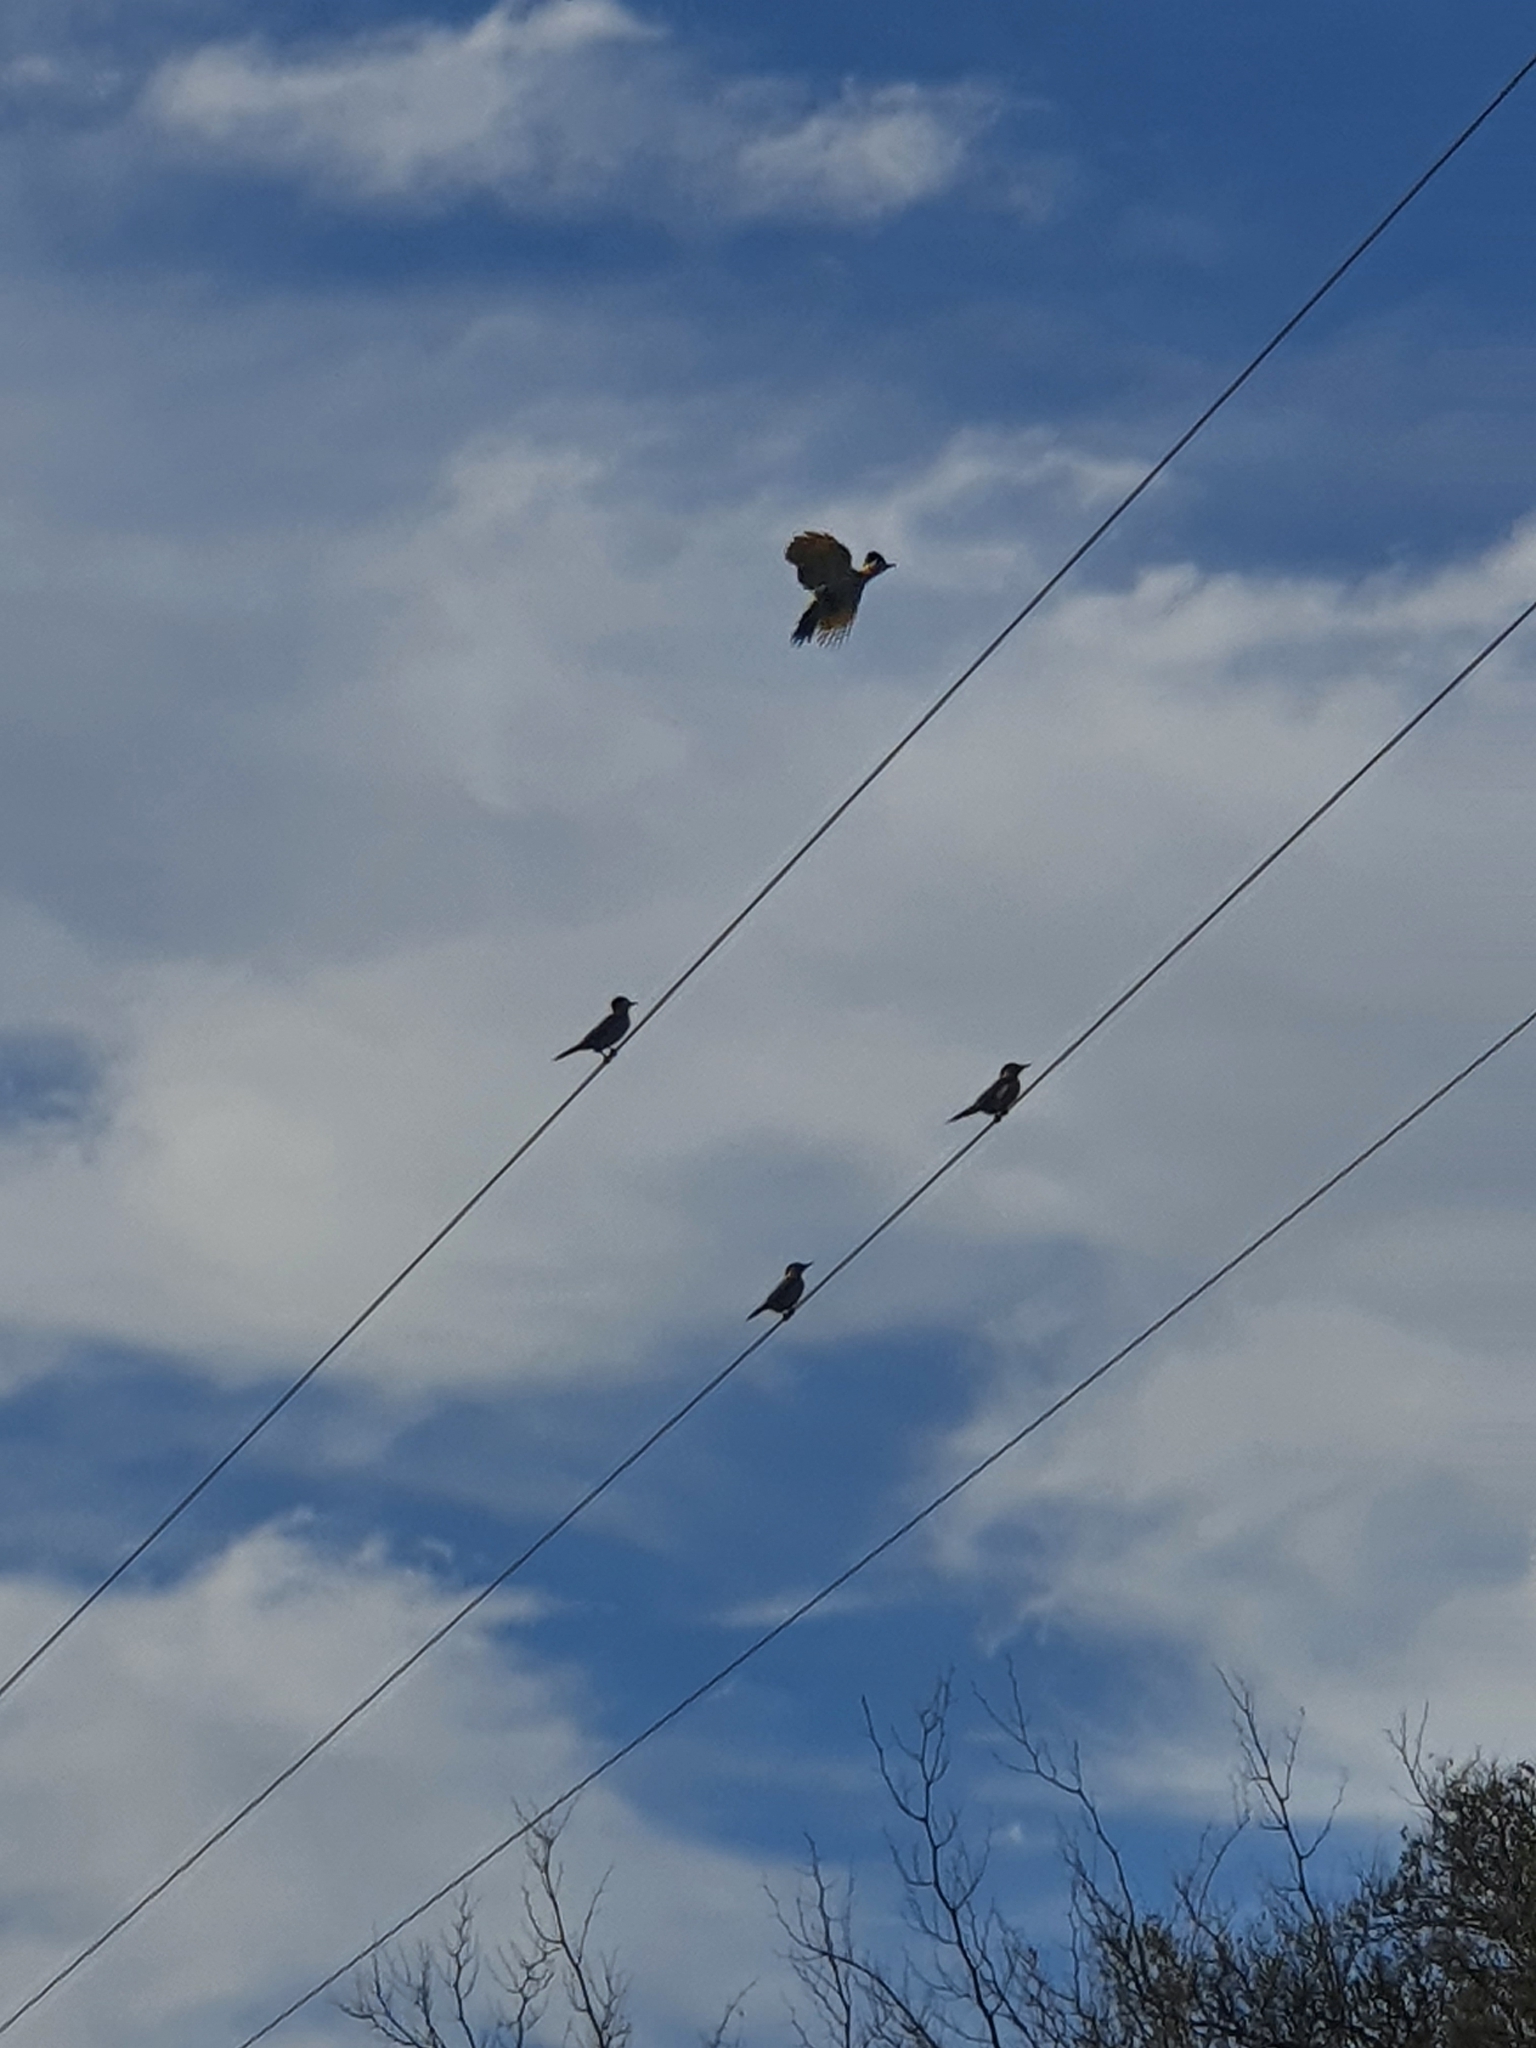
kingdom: Animalia
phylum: Chordata
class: Aves
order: Piciformes
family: Picidae
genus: Colaptes
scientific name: Colaptes campestris
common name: Campo flicker
